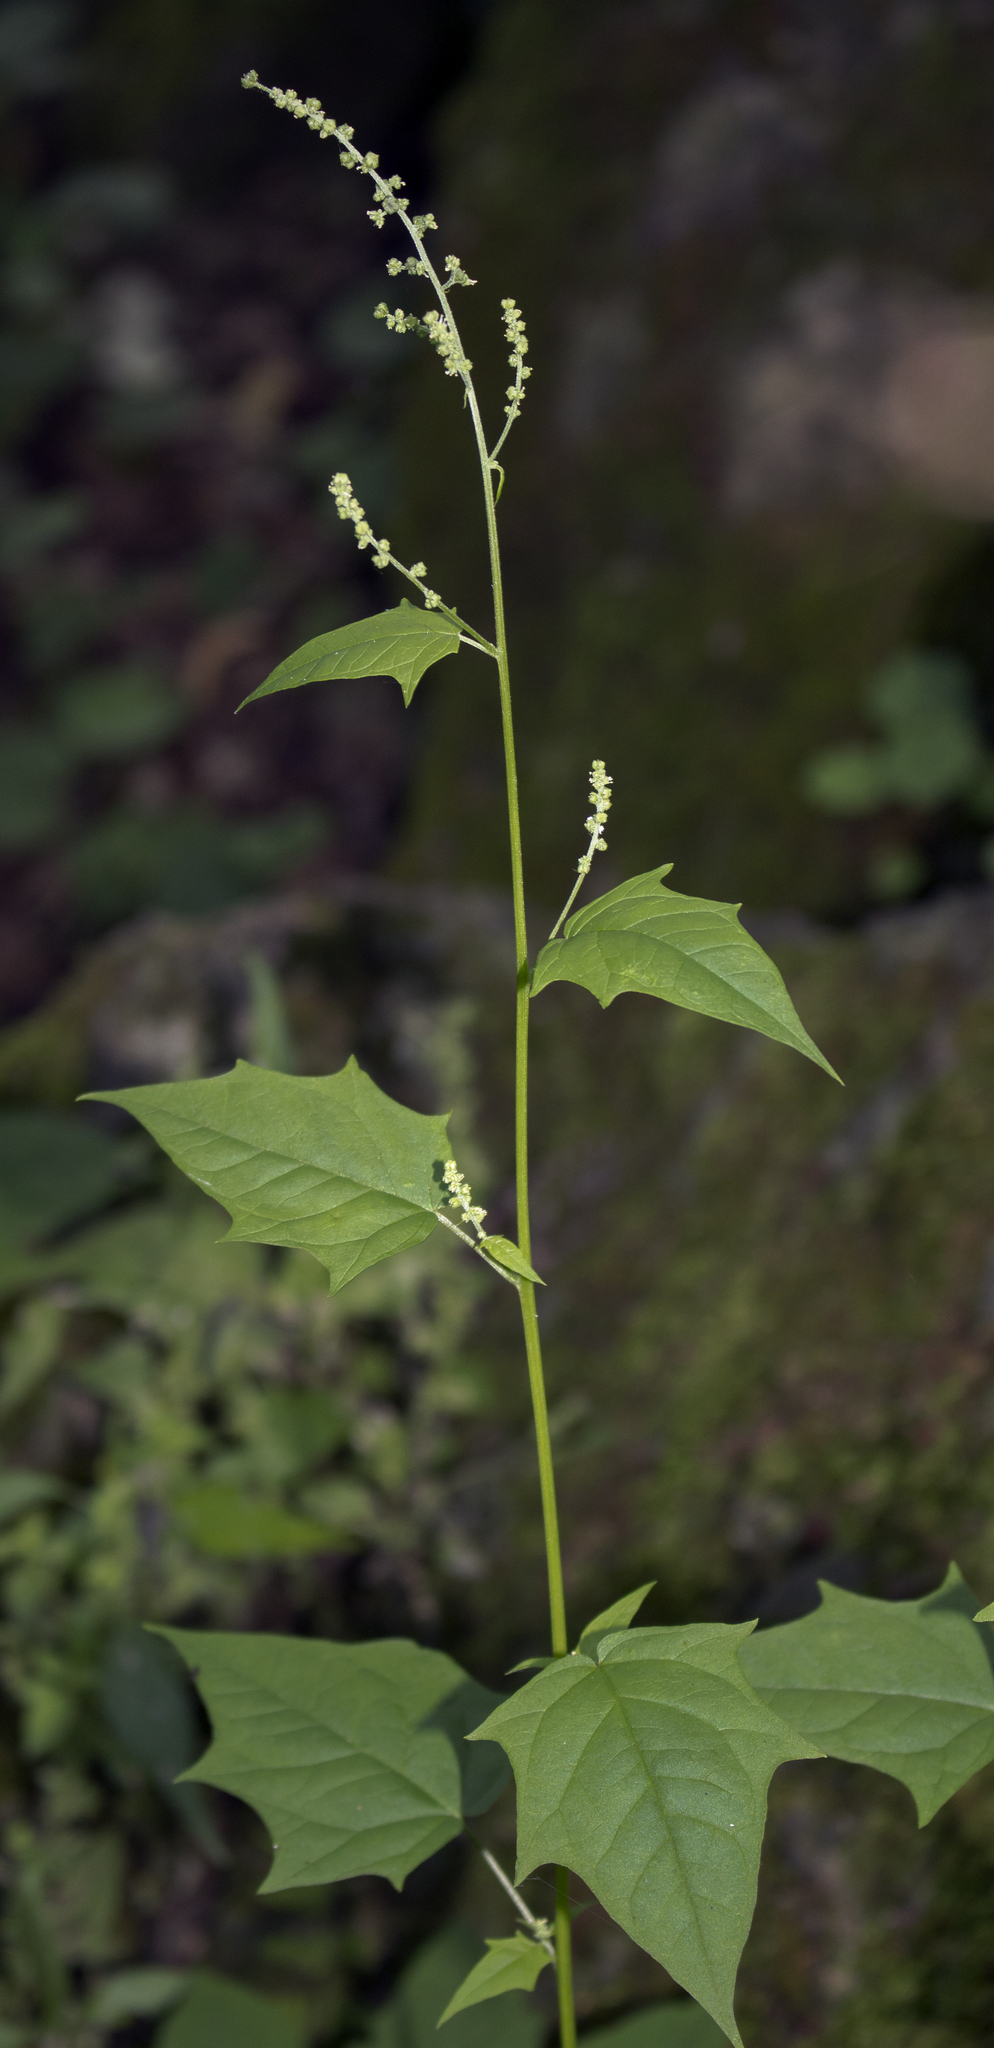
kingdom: Plantae
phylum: Tracheophyta
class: Magnoliopsida
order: Caryophyllales
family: Amaranthaceae
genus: Chenopodiastrum
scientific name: Chenopodiastrum hybridum
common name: Mapleleaf goosefoot
